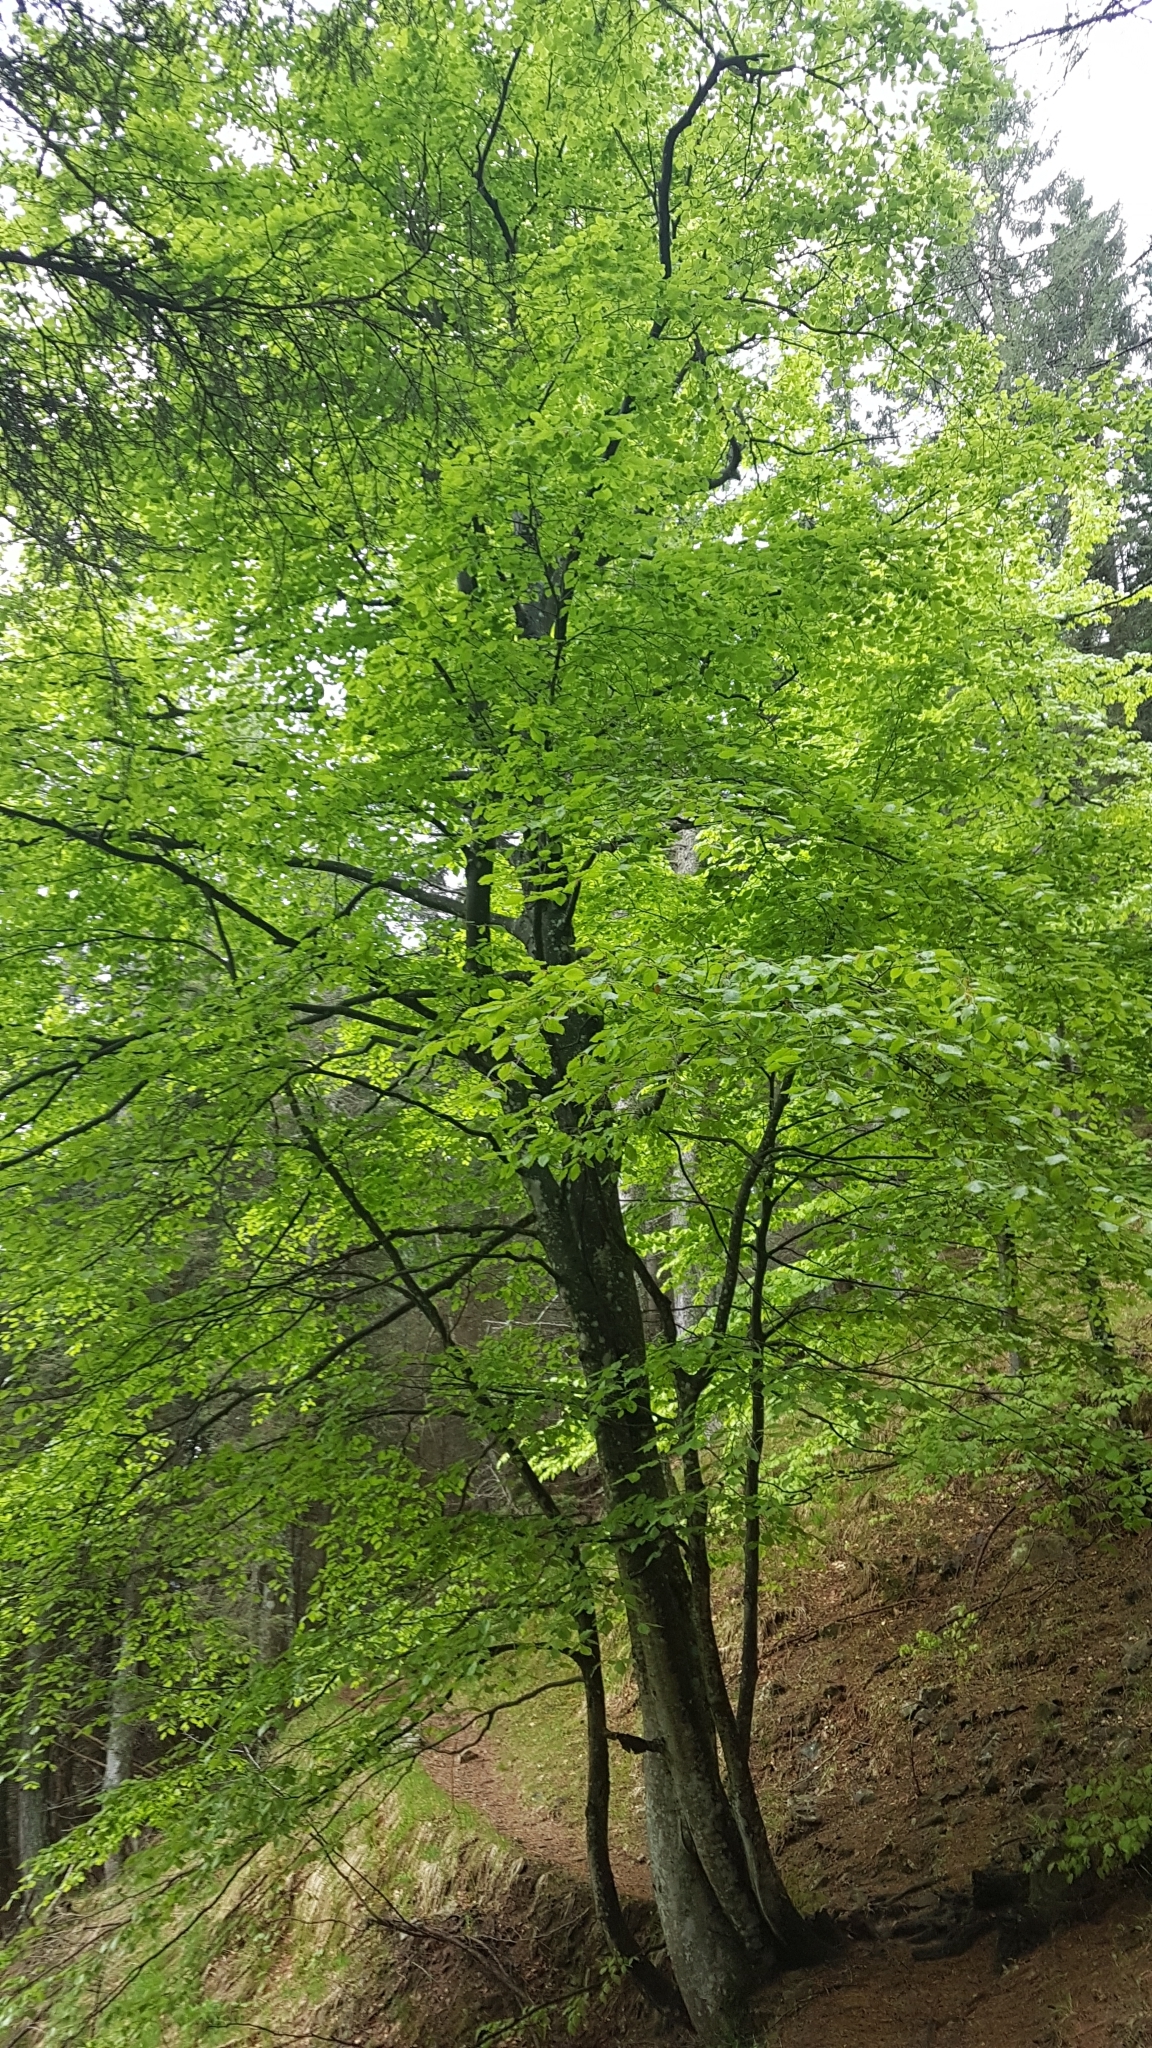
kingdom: Plantae
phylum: Tracheophyta
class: Magnoliopsida
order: Fagales
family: Fagaceae
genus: Fagus
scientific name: Fagus sylvatica
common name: Beech
